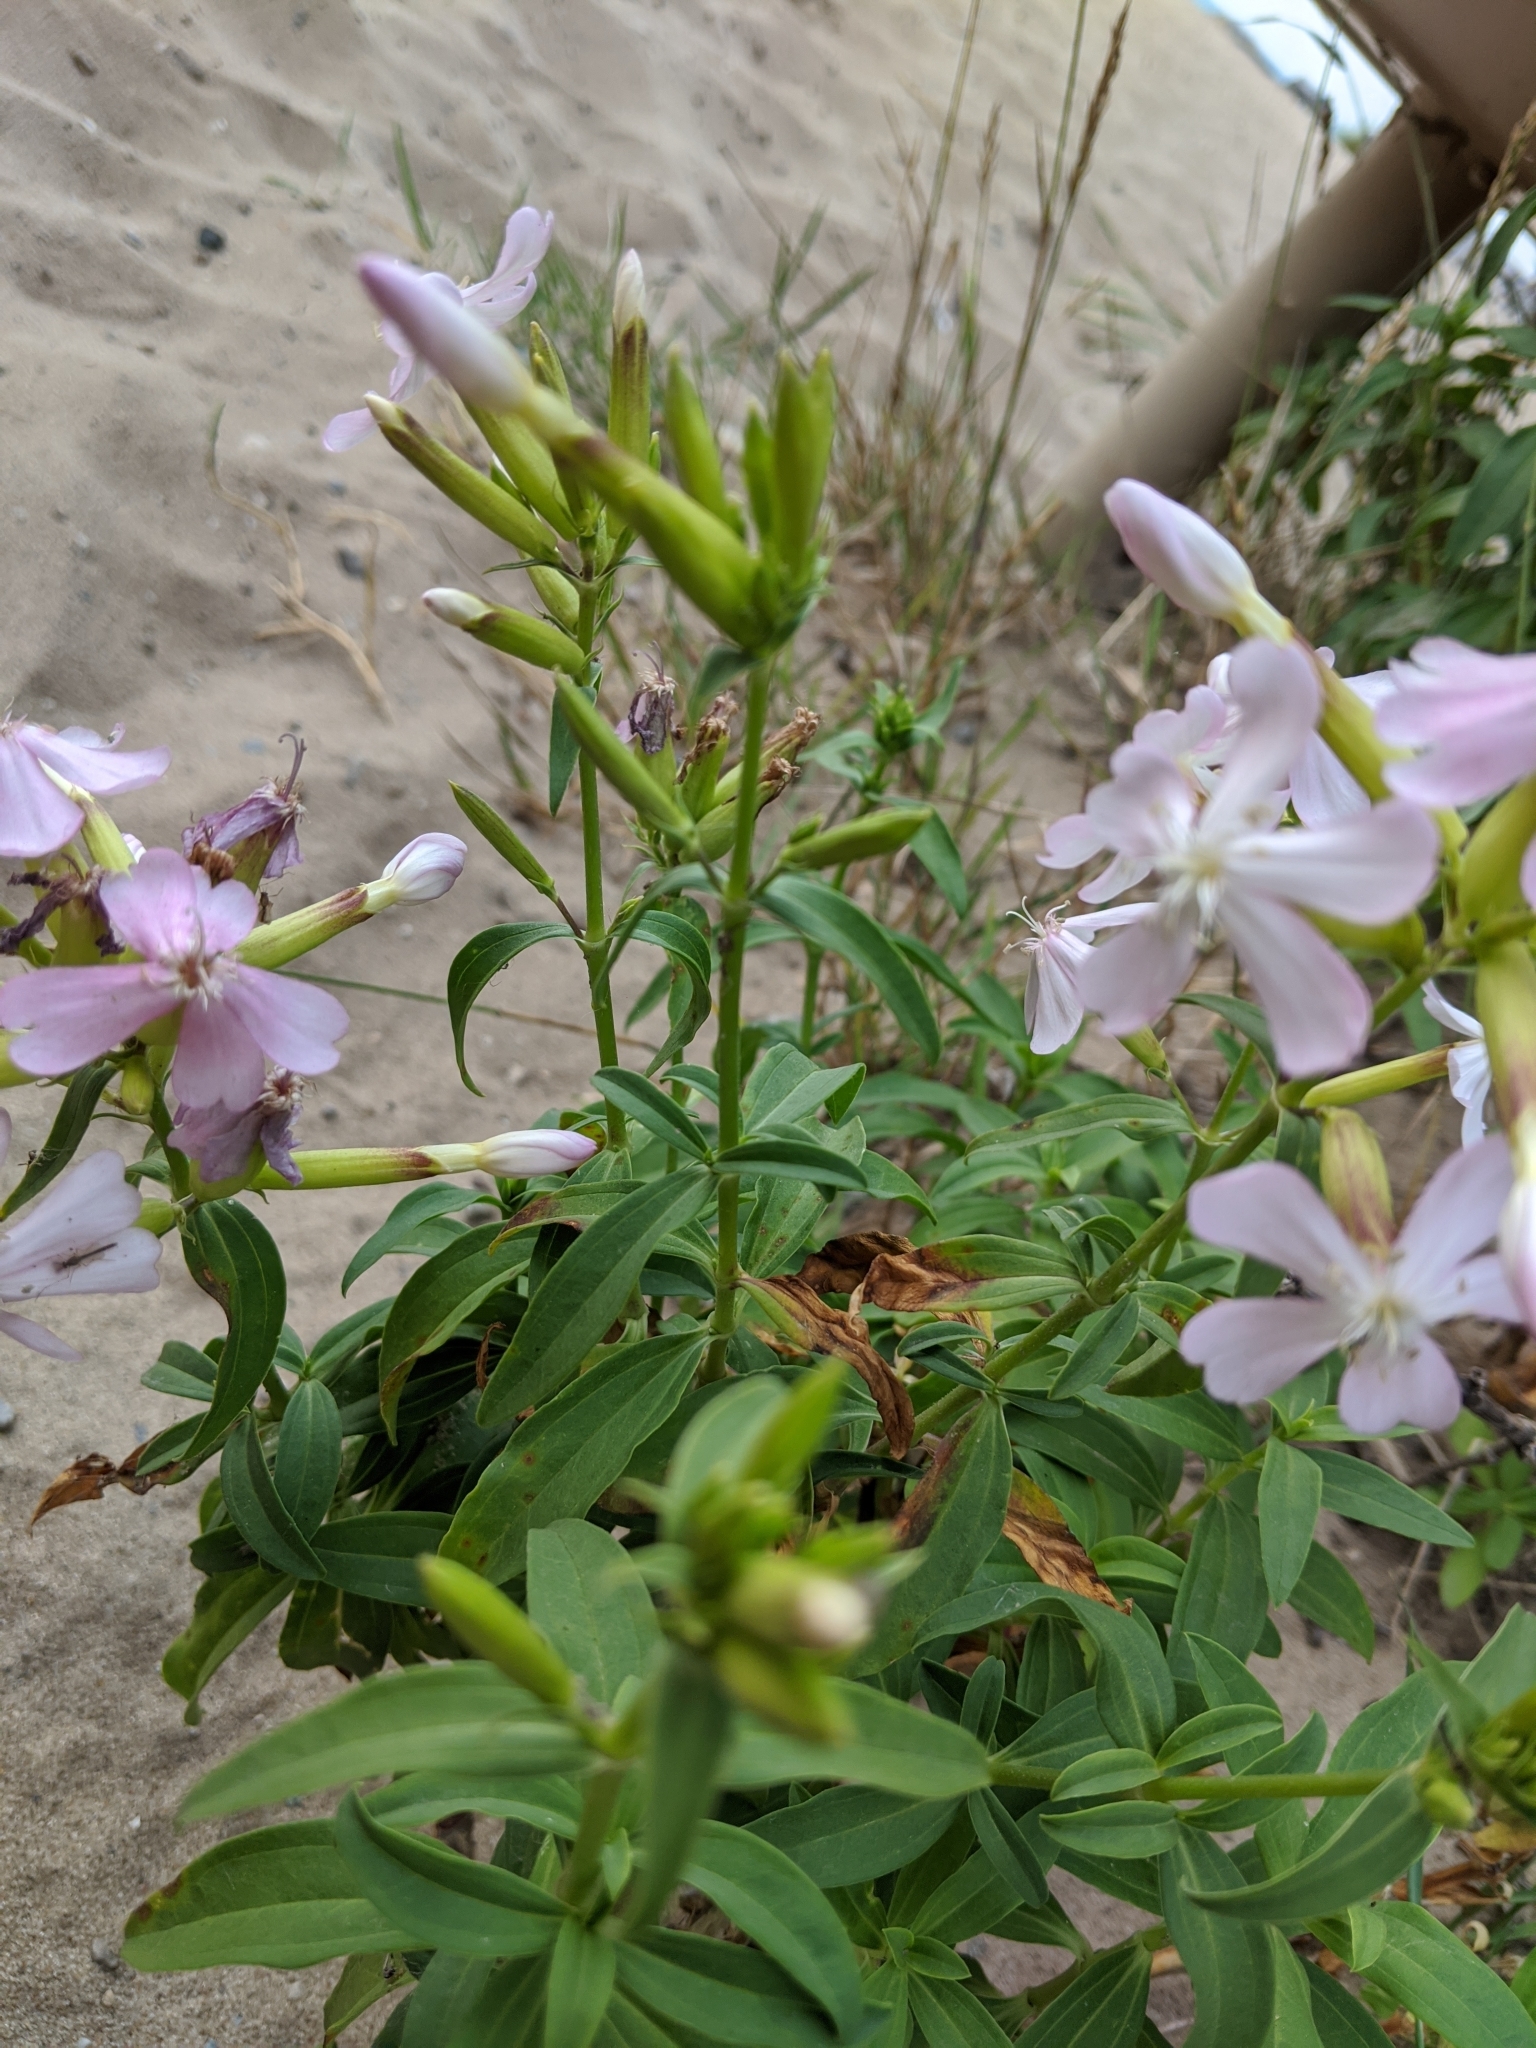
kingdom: Plantae
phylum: Tracheophyta
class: Magnoliopsida
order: Caryophyllales
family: Caryophyllaceae
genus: Saponaria
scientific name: Saponaria officinalis
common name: Soapwort
